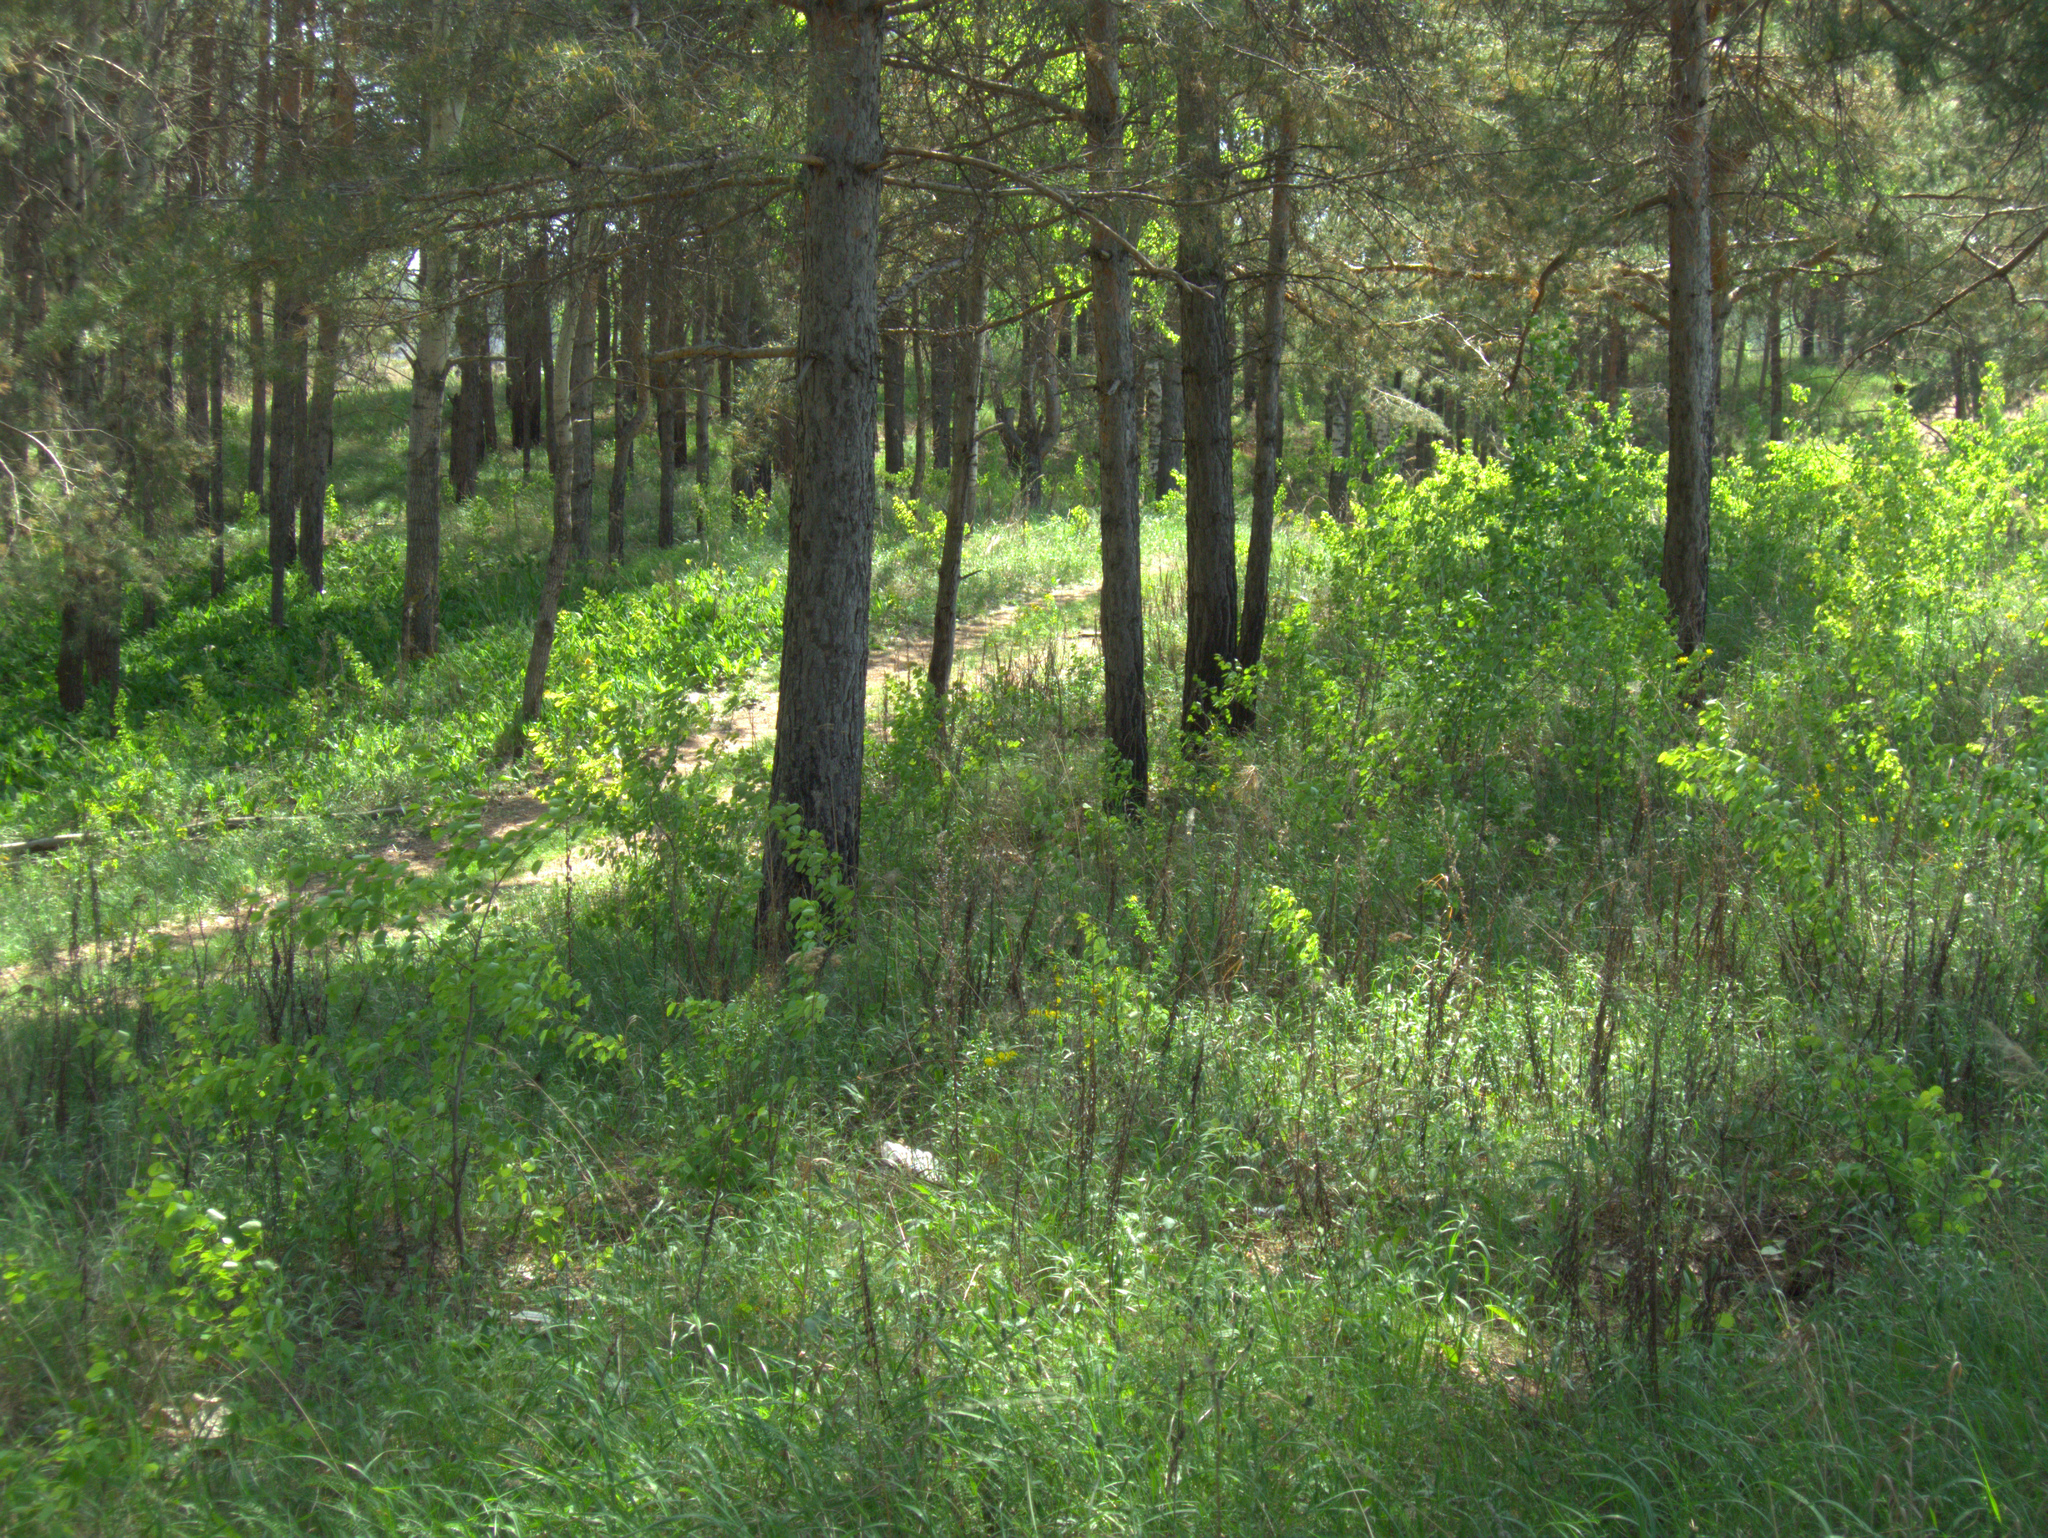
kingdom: Plantae
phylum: Tracheophyta
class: Pinopsida
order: Pinales
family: Pinaceae
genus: Pinus
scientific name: Pinus sylvestris
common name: Scots pine
